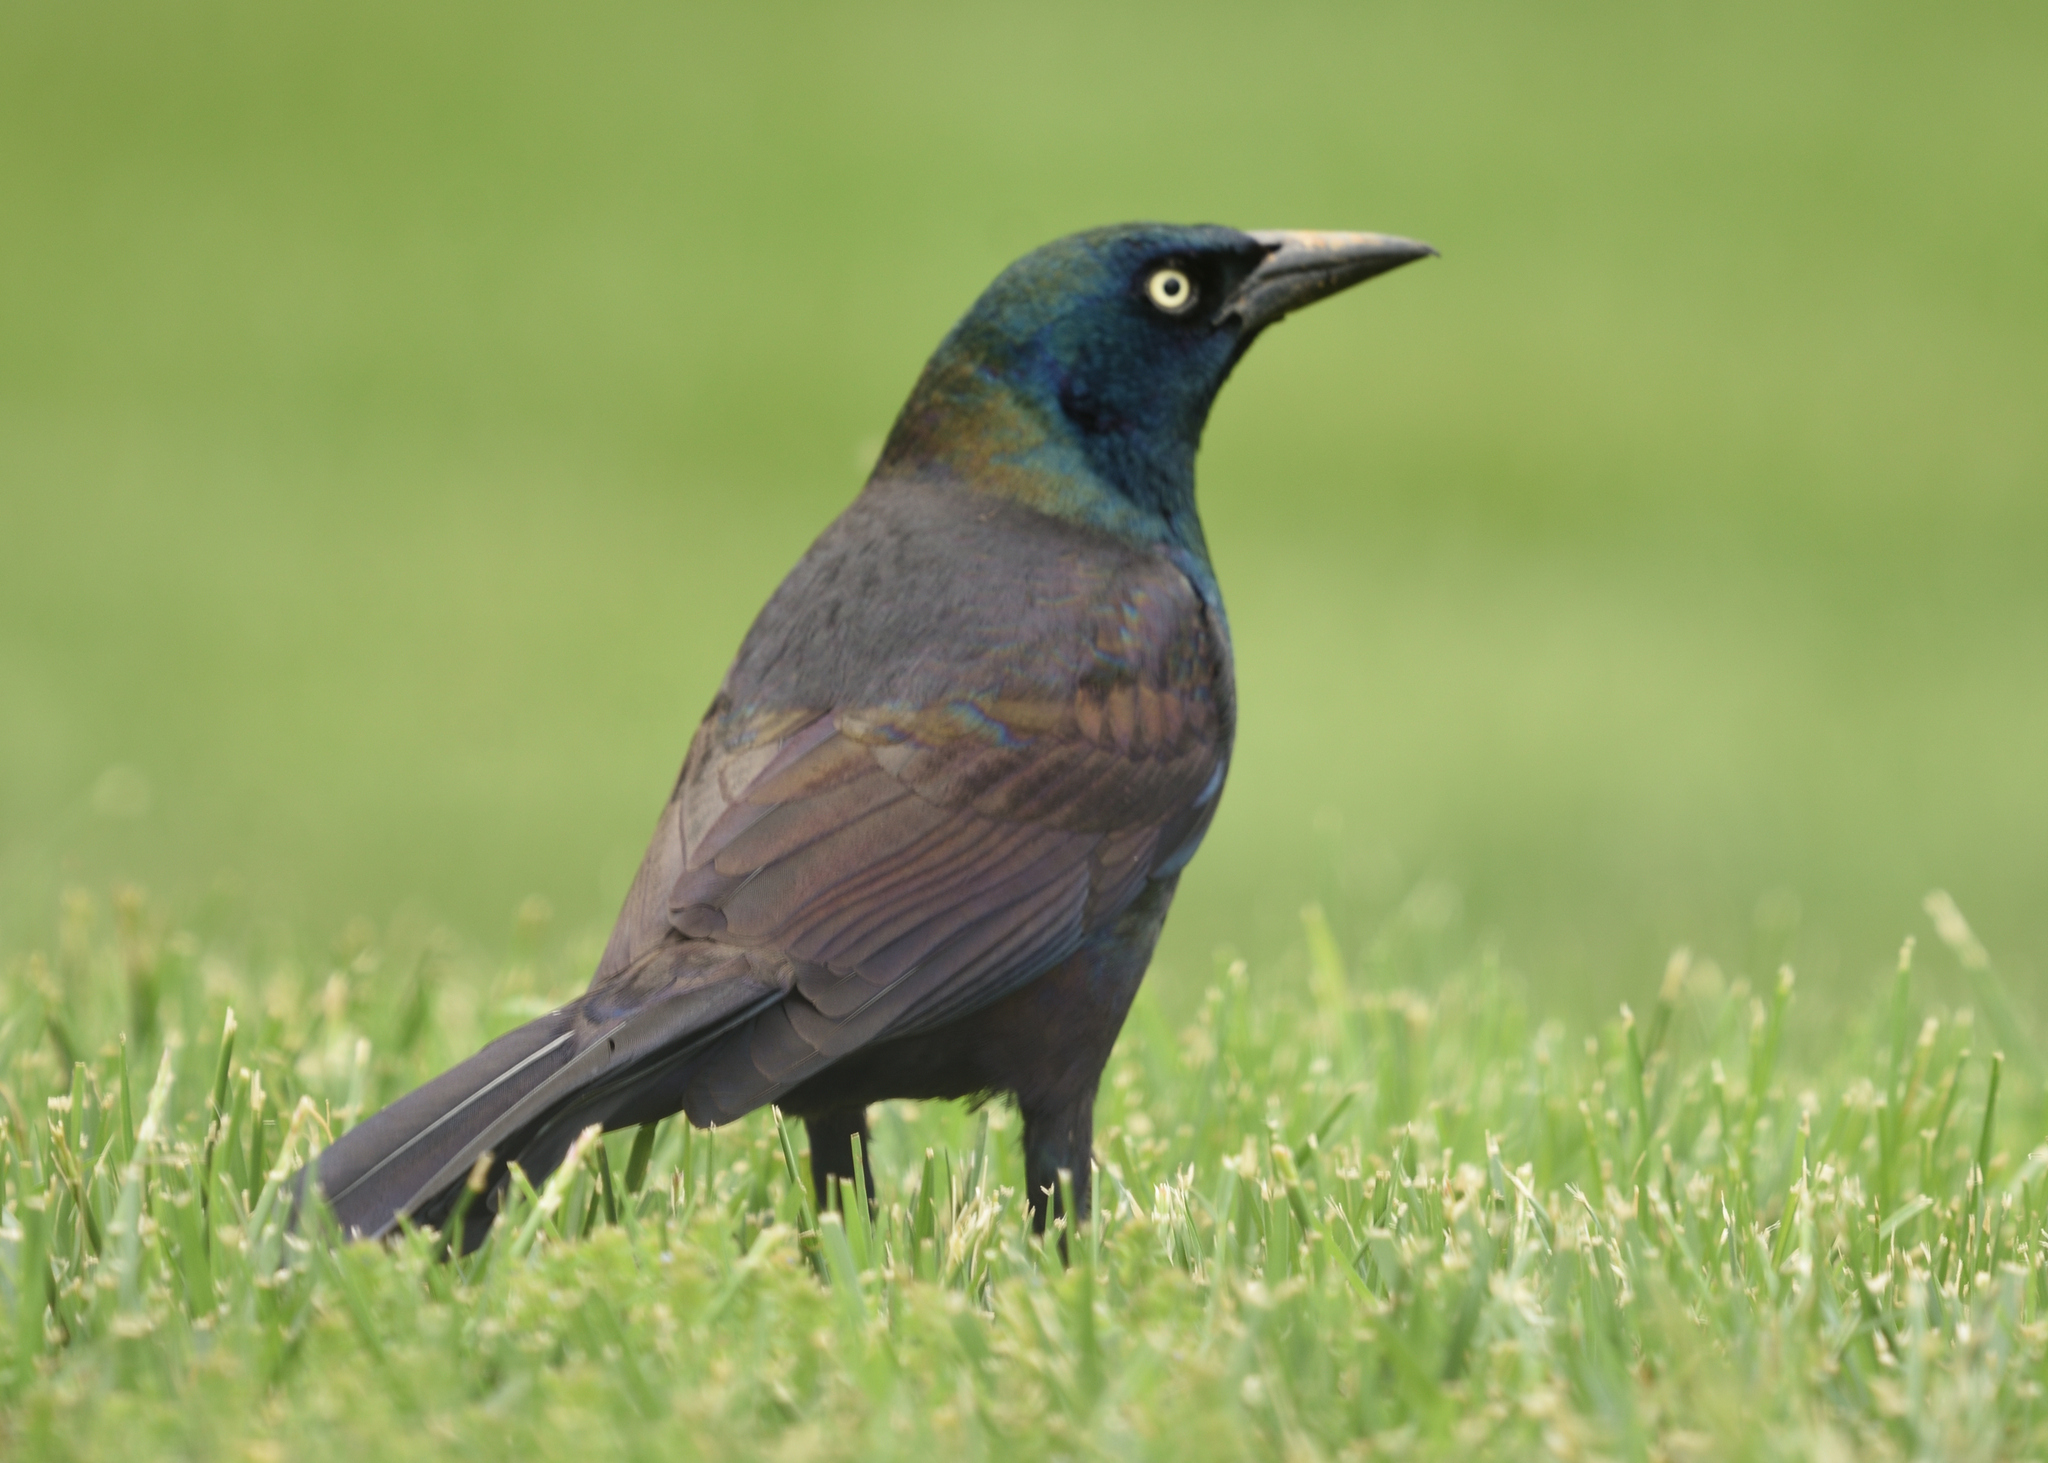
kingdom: Animalia
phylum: Chordata
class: Aves
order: Passeriformes
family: Icteridae
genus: Quiscalus
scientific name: Quiscalus quiscula
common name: Common grackle
